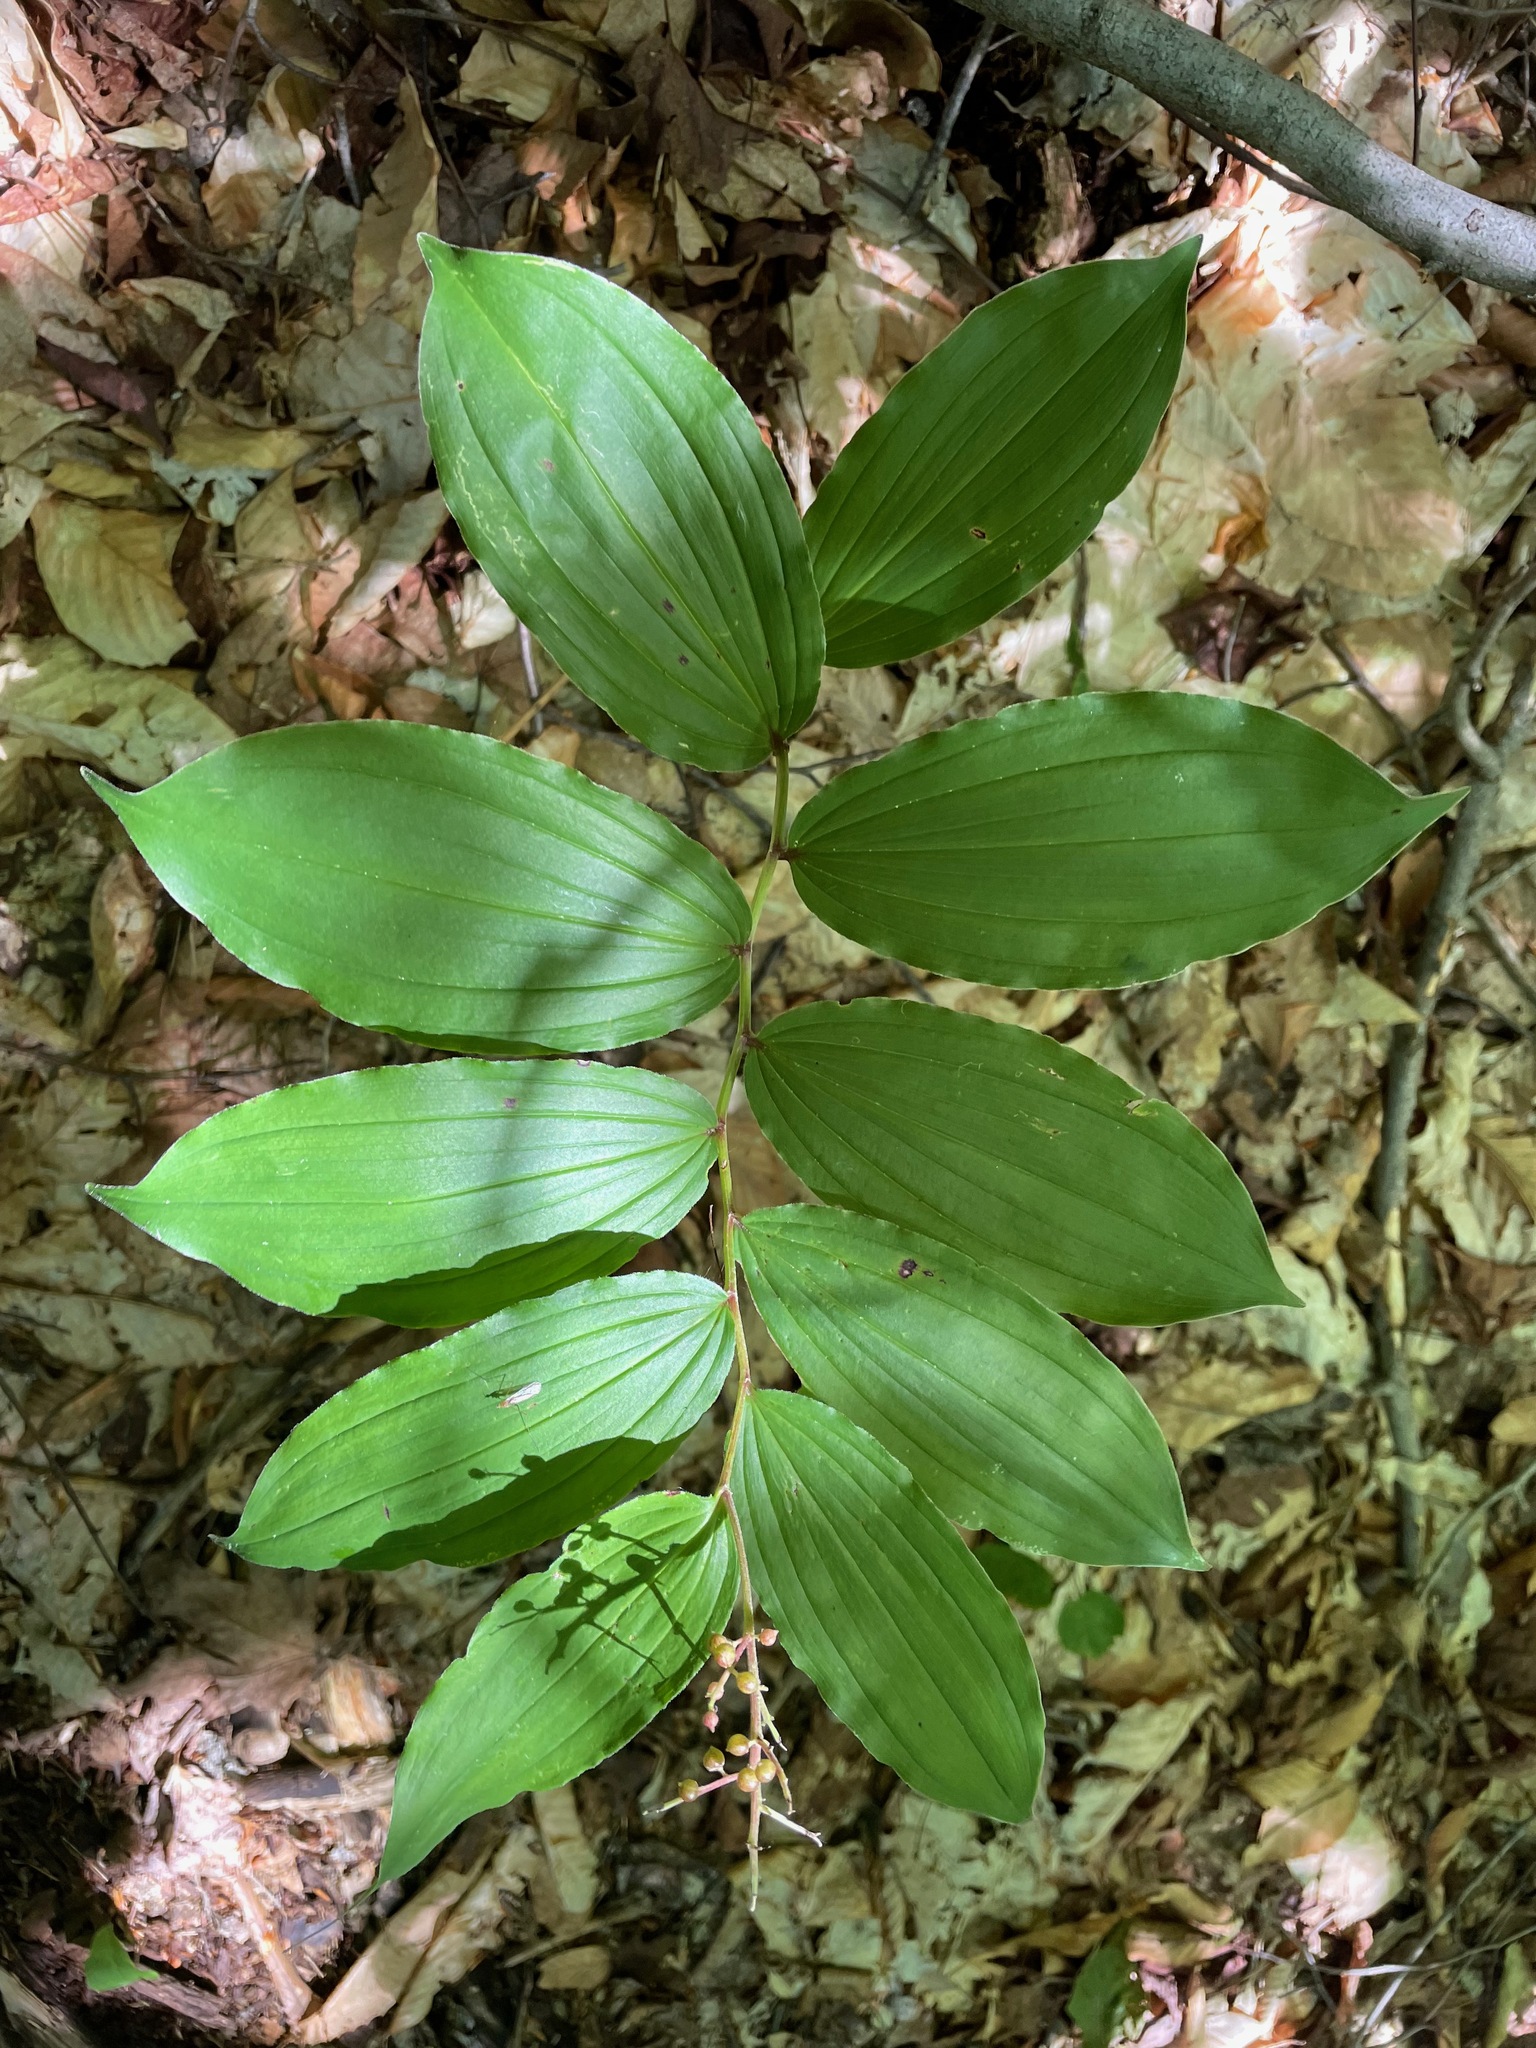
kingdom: Plantae
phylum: Tracheophyta
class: Liliopsida
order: Asparagales
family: Asparagaceae
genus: Maianthemum
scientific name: Maianthemum racemosum
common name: False spikenard
